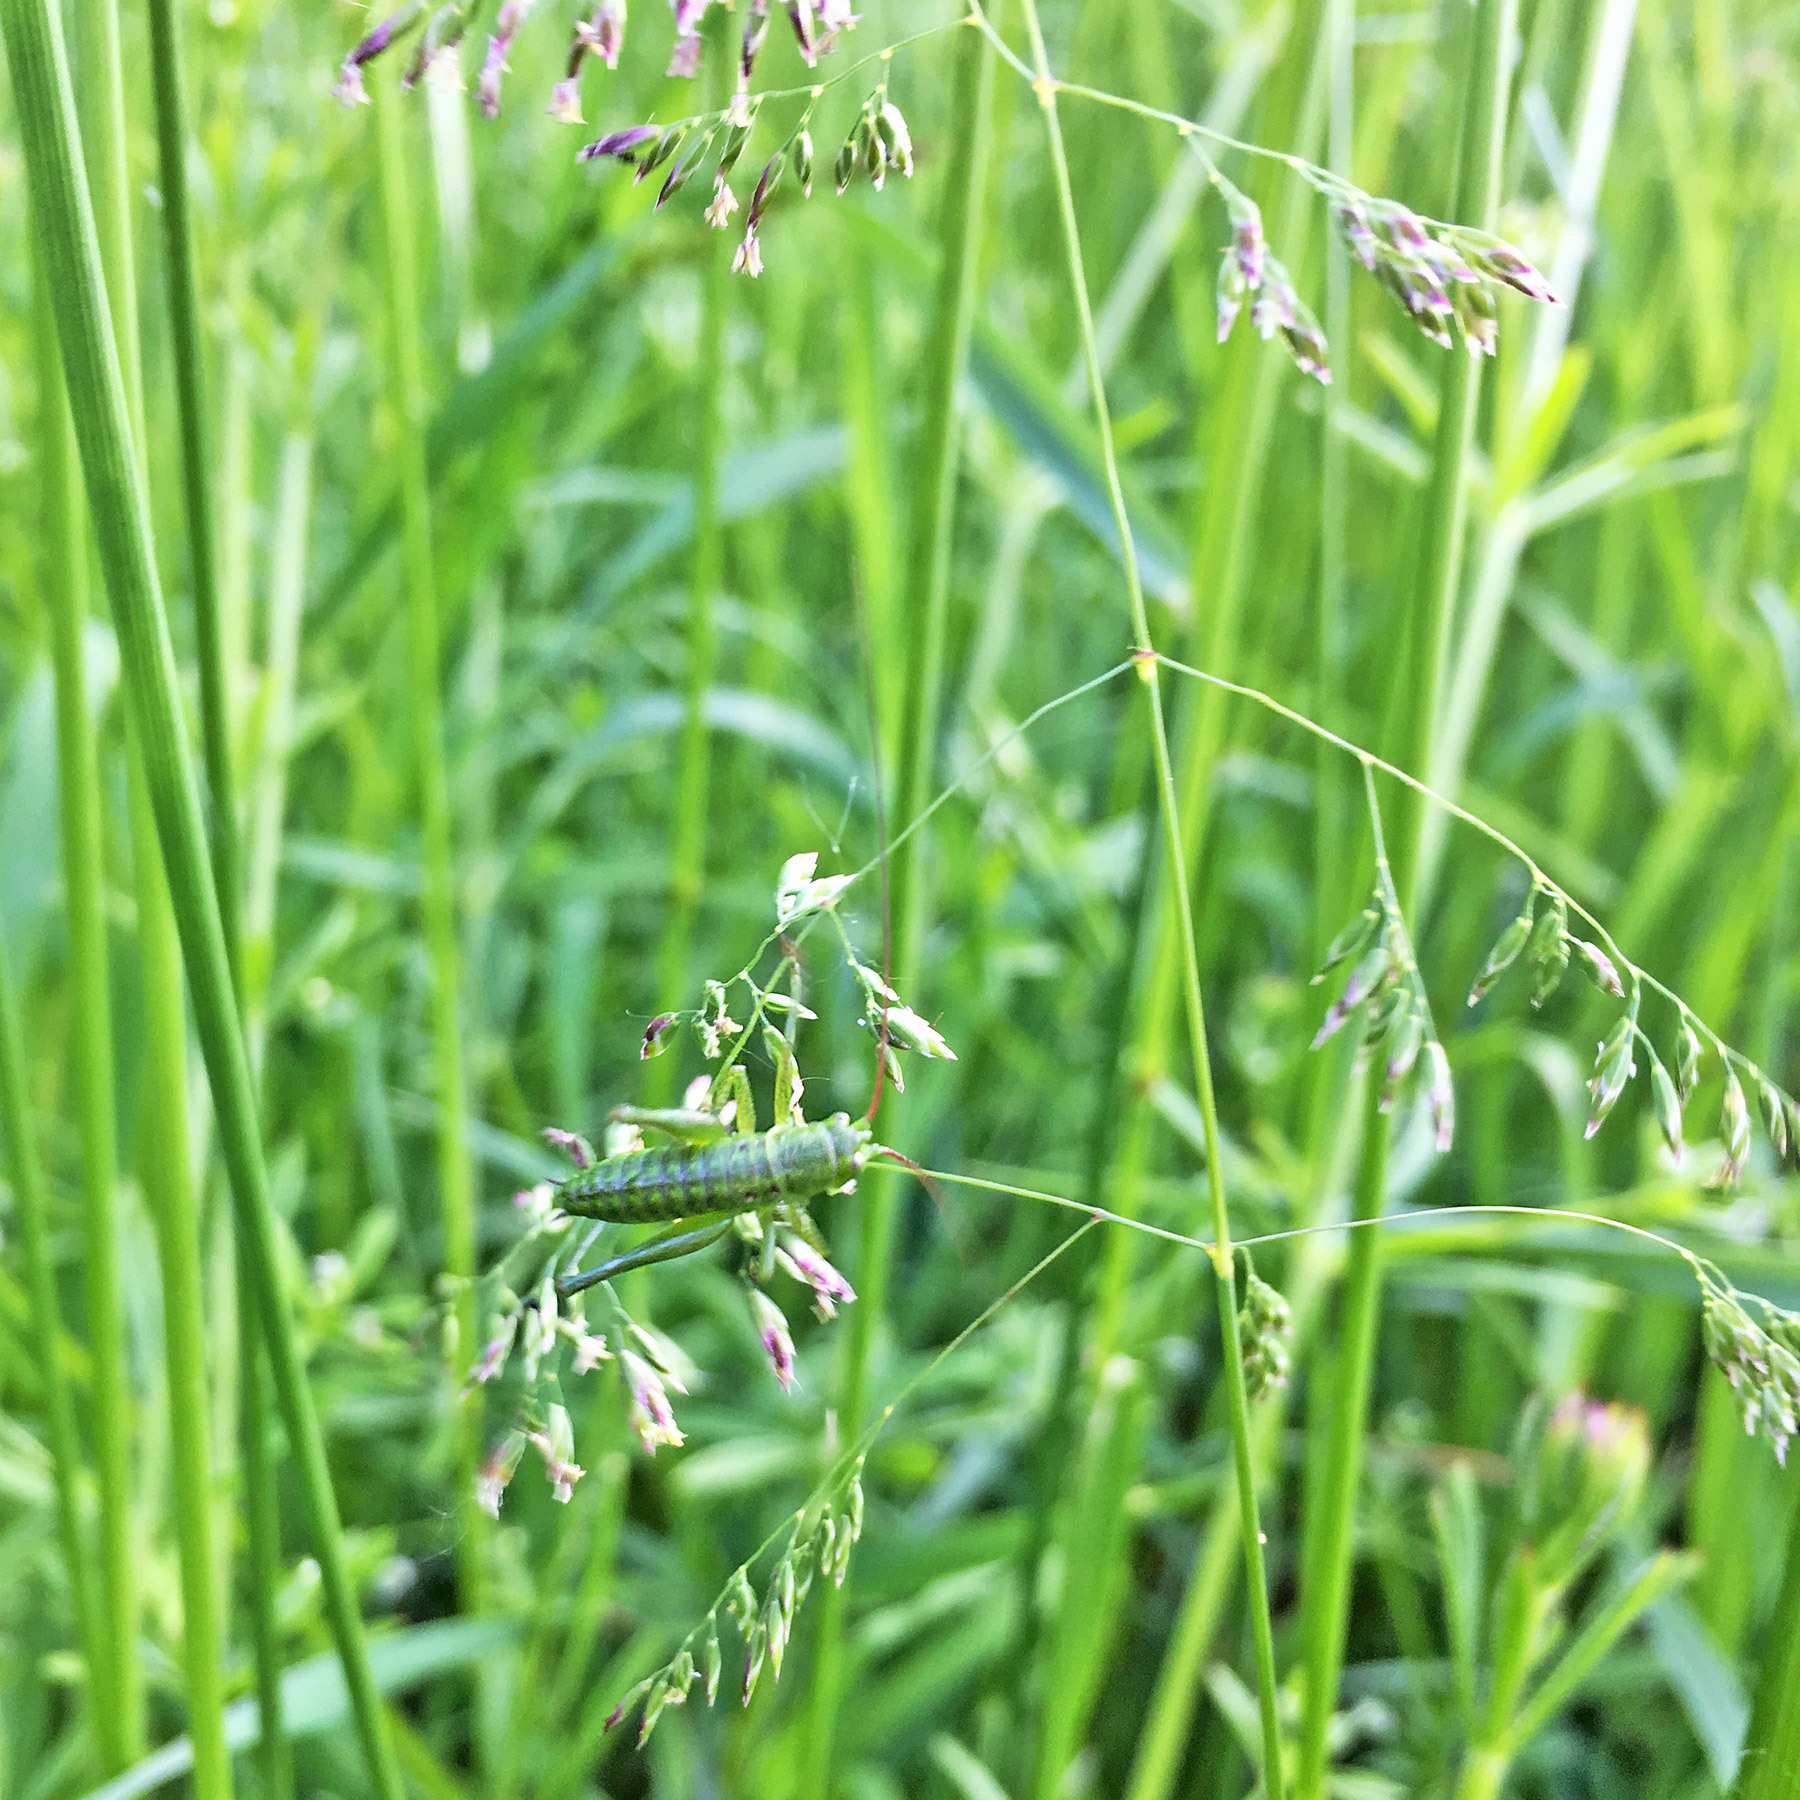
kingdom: Animalia
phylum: Arthropoda
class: Insecta
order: Orthoptera
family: Tettigoniidae
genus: Tettigonia
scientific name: Tettigonia viridissima
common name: Great green bush-cricket
